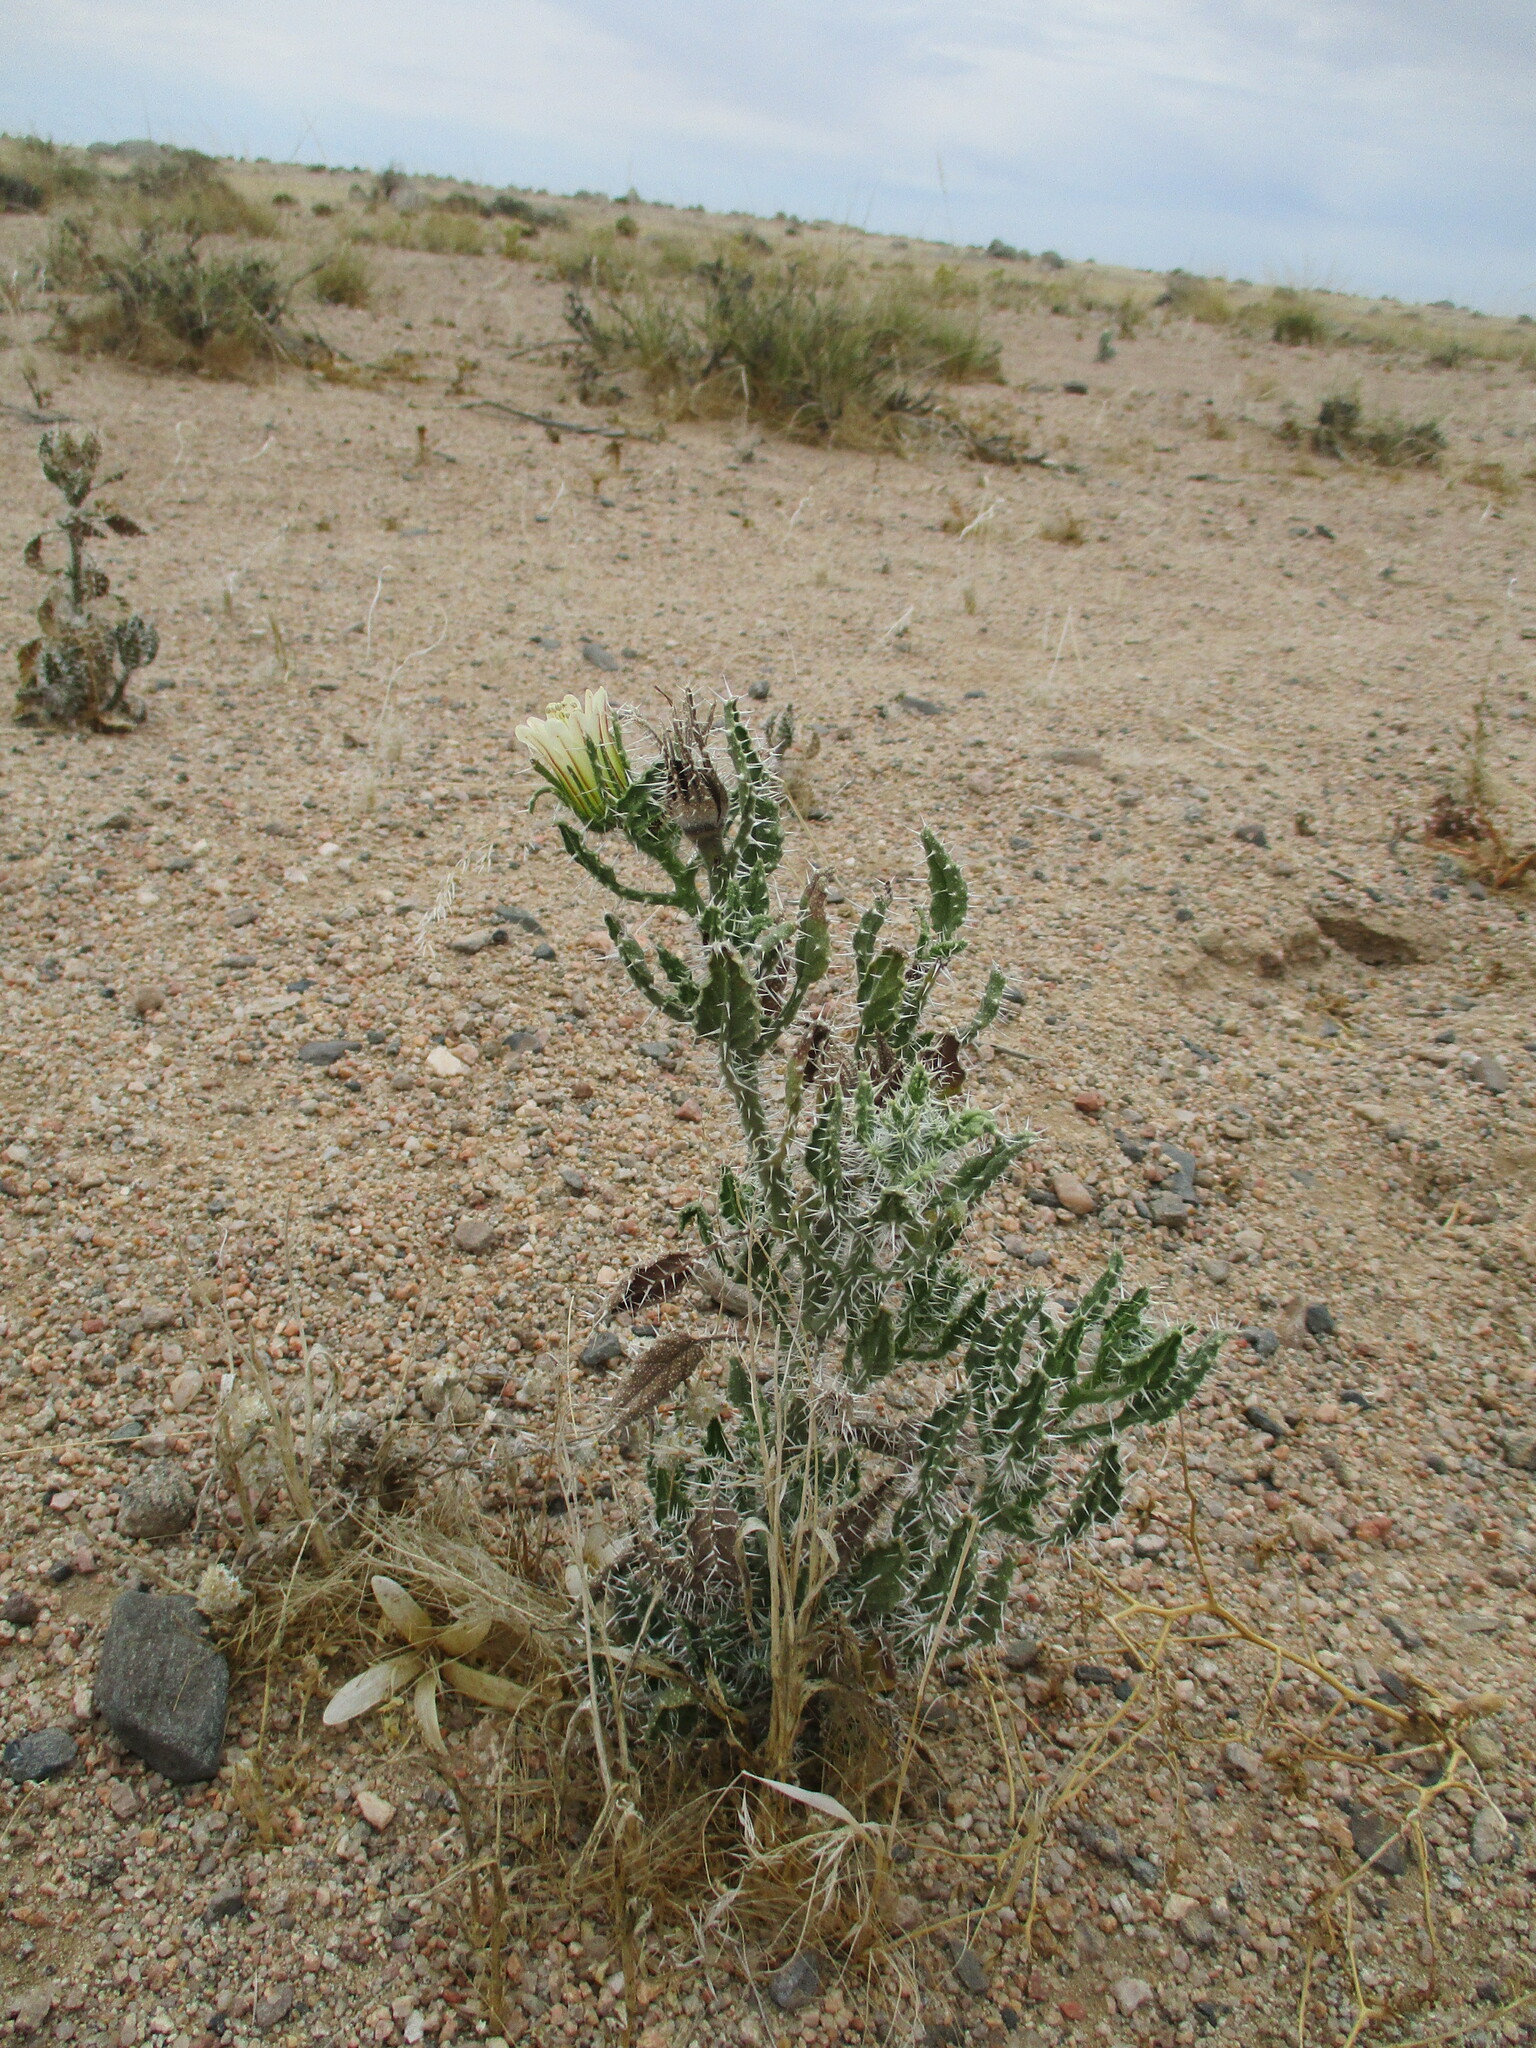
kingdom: Plantae
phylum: Tracheophyta
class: Magnoliopsida
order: Boraginales
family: Boraginaceae
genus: Codon
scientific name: Codon royenii
